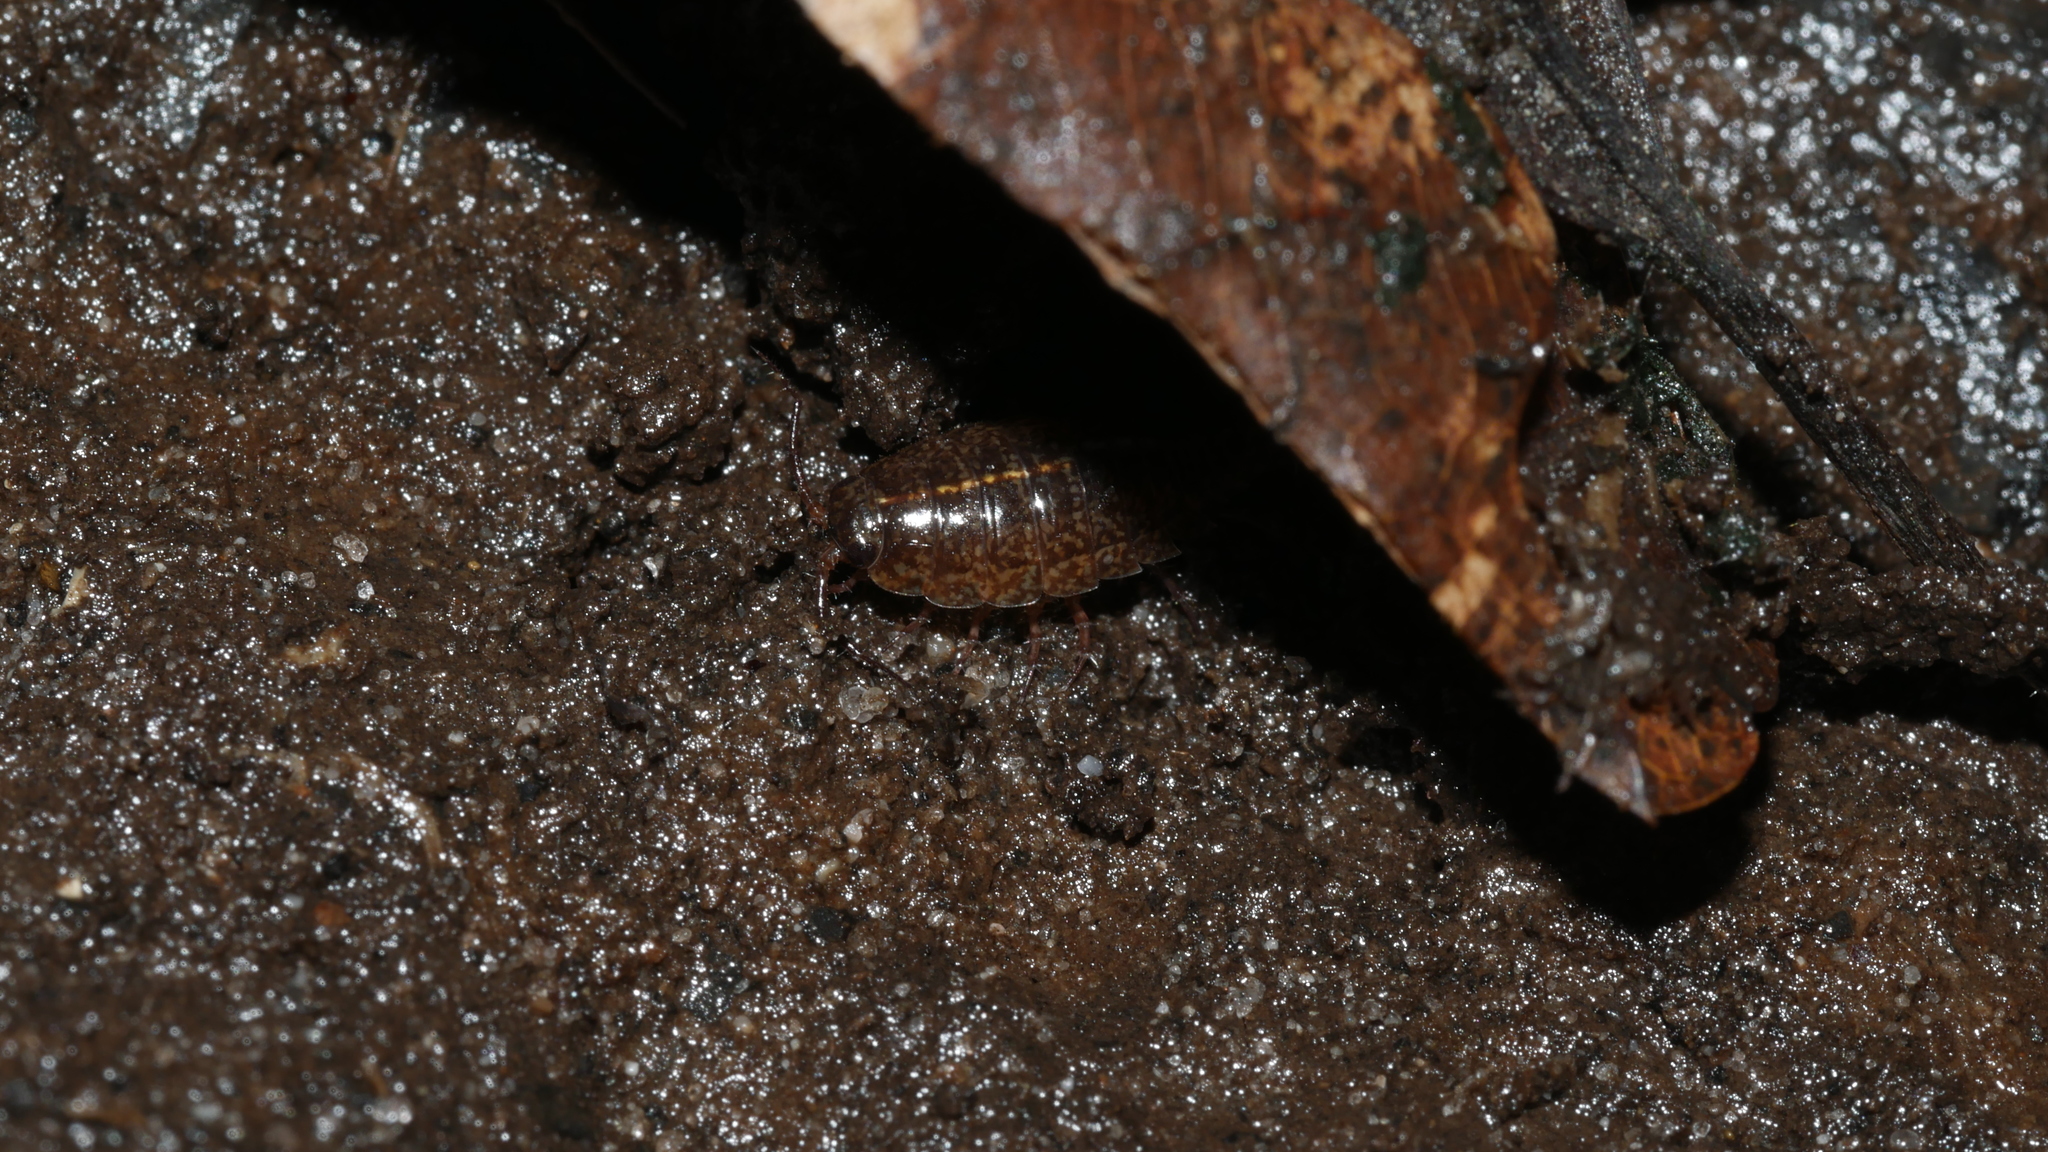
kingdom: Animalia
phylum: Arthropoda
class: Malacostraca
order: Isopoda
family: Ligiidae
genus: Ligidium
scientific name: Ligidium elrodii
